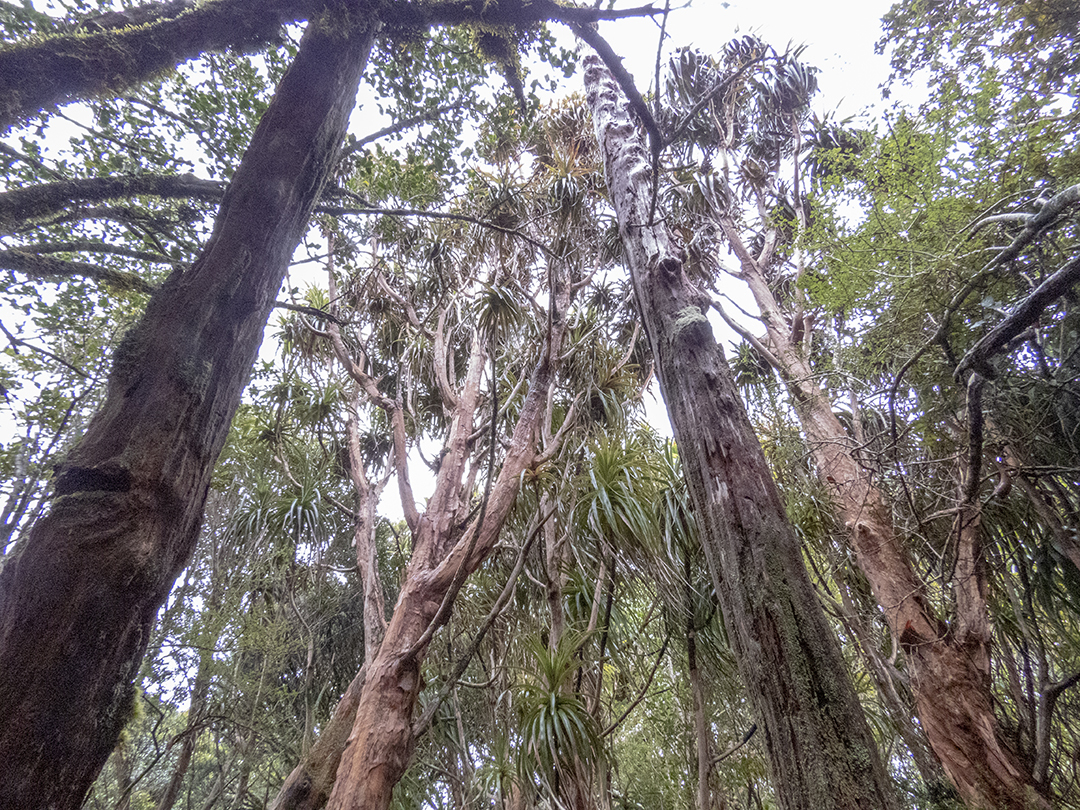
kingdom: Plantae
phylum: Tracheophyta
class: Magnoliopsida
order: Ericales
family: Ericaceae
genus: Dracophyllum
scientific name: Dracophyllum traversii
